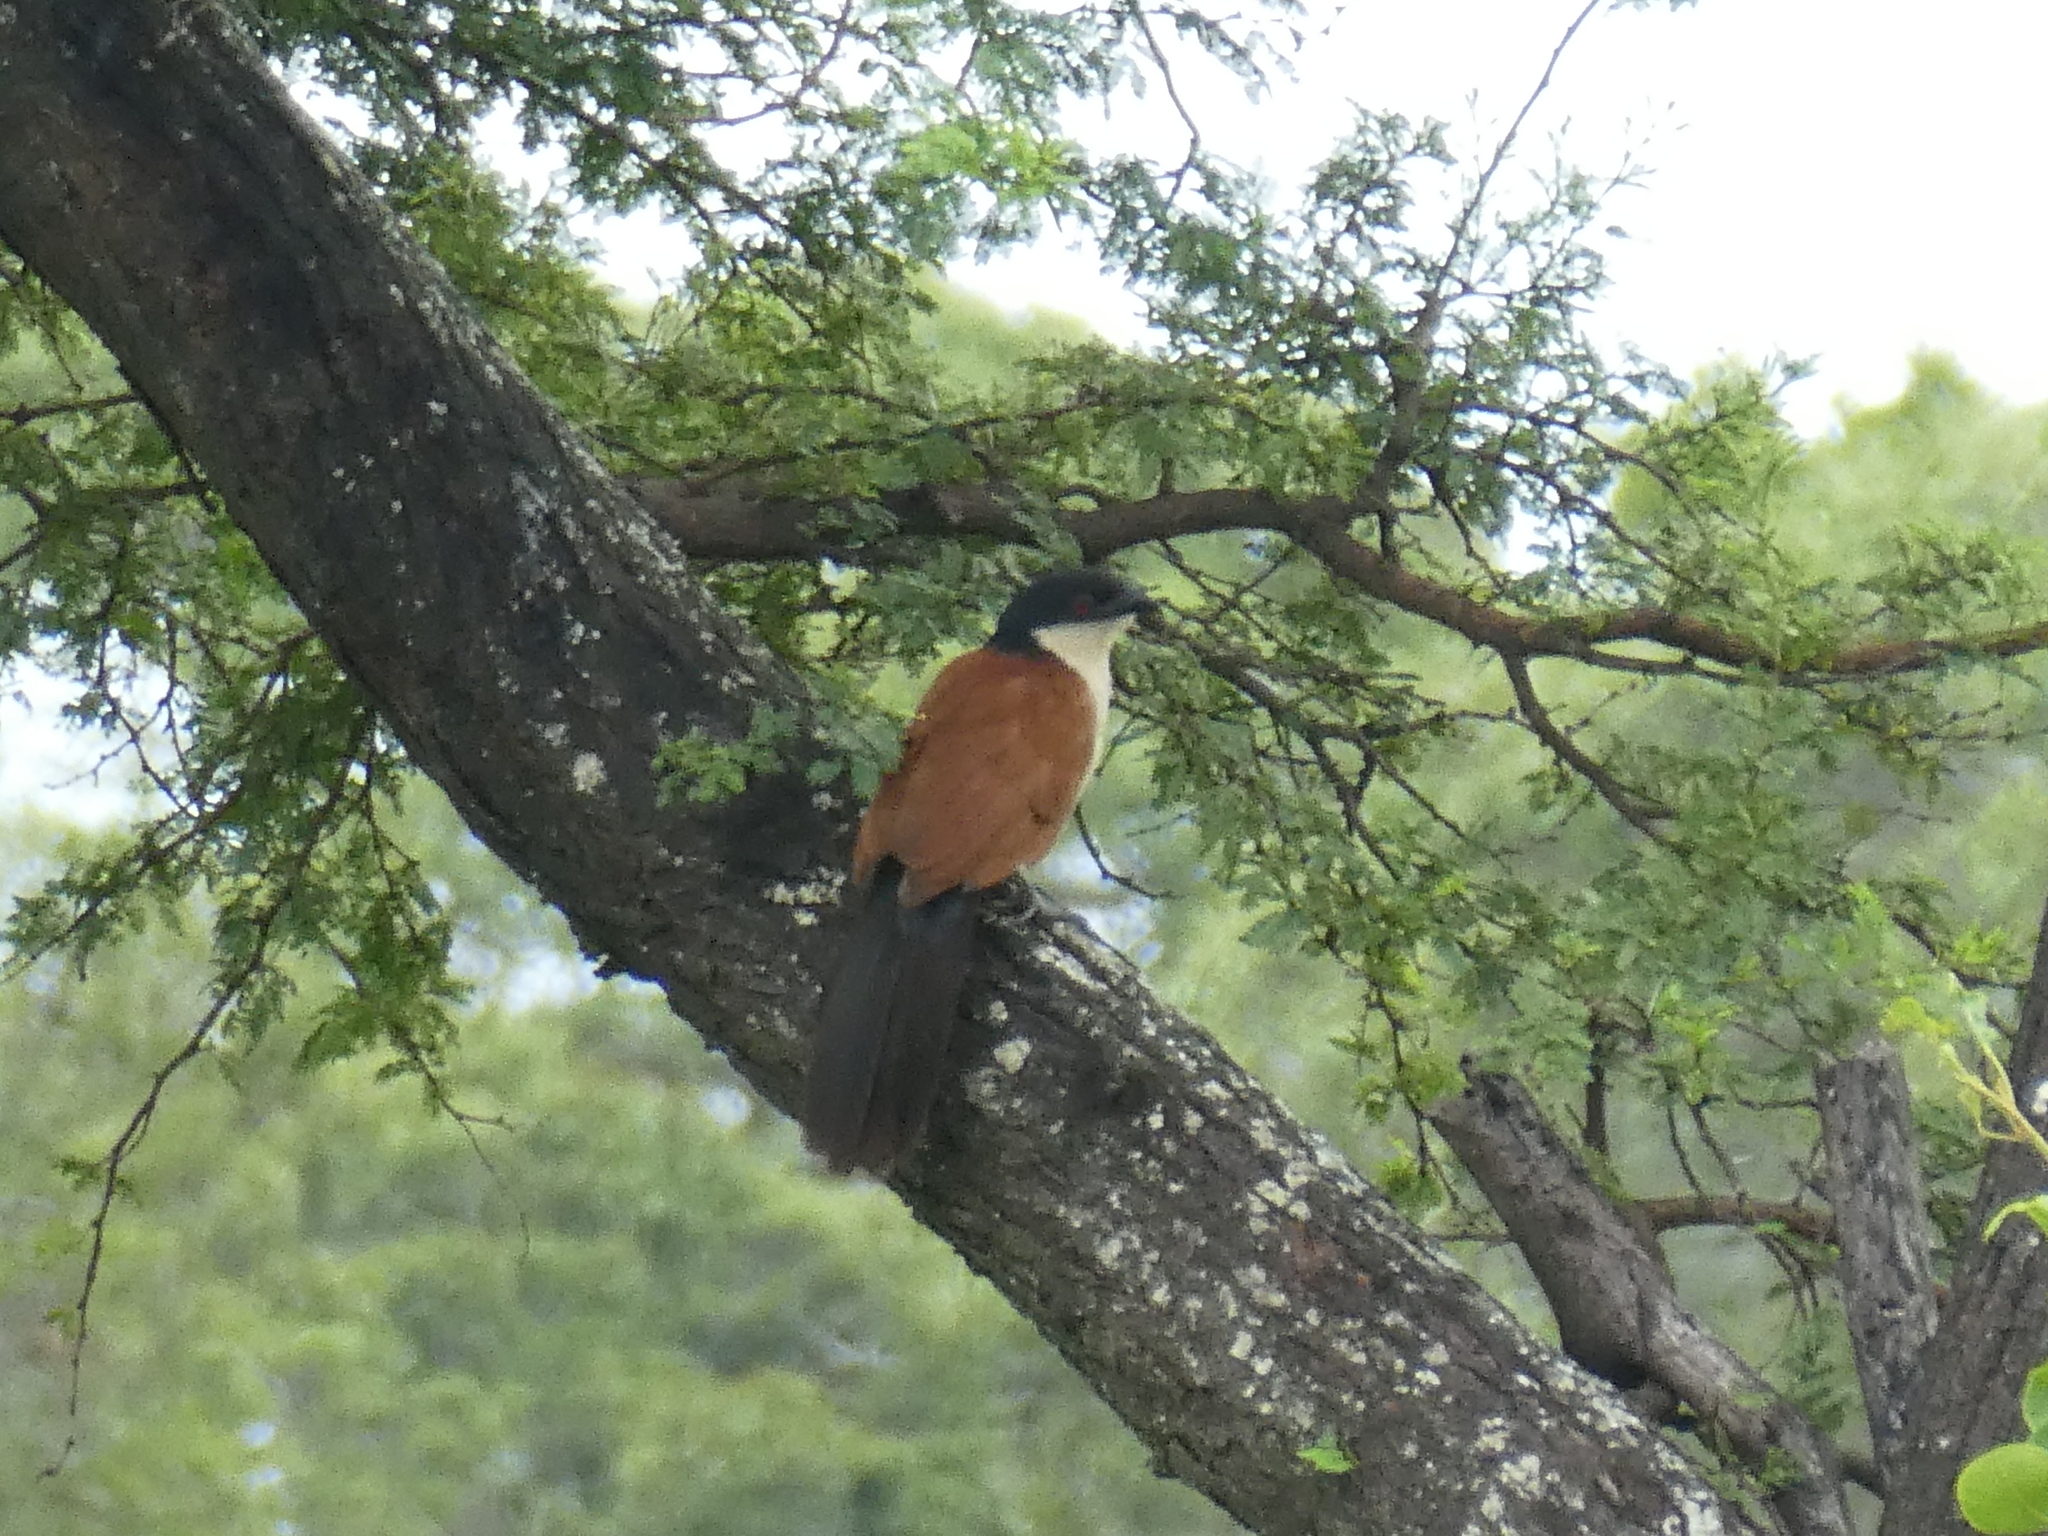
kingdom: Animalia
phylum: Chordata
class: Aves
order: Cuculiformes
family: Cuculidae
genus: Centropus
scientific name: Centropus senegalensis
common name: Senegal coucal
